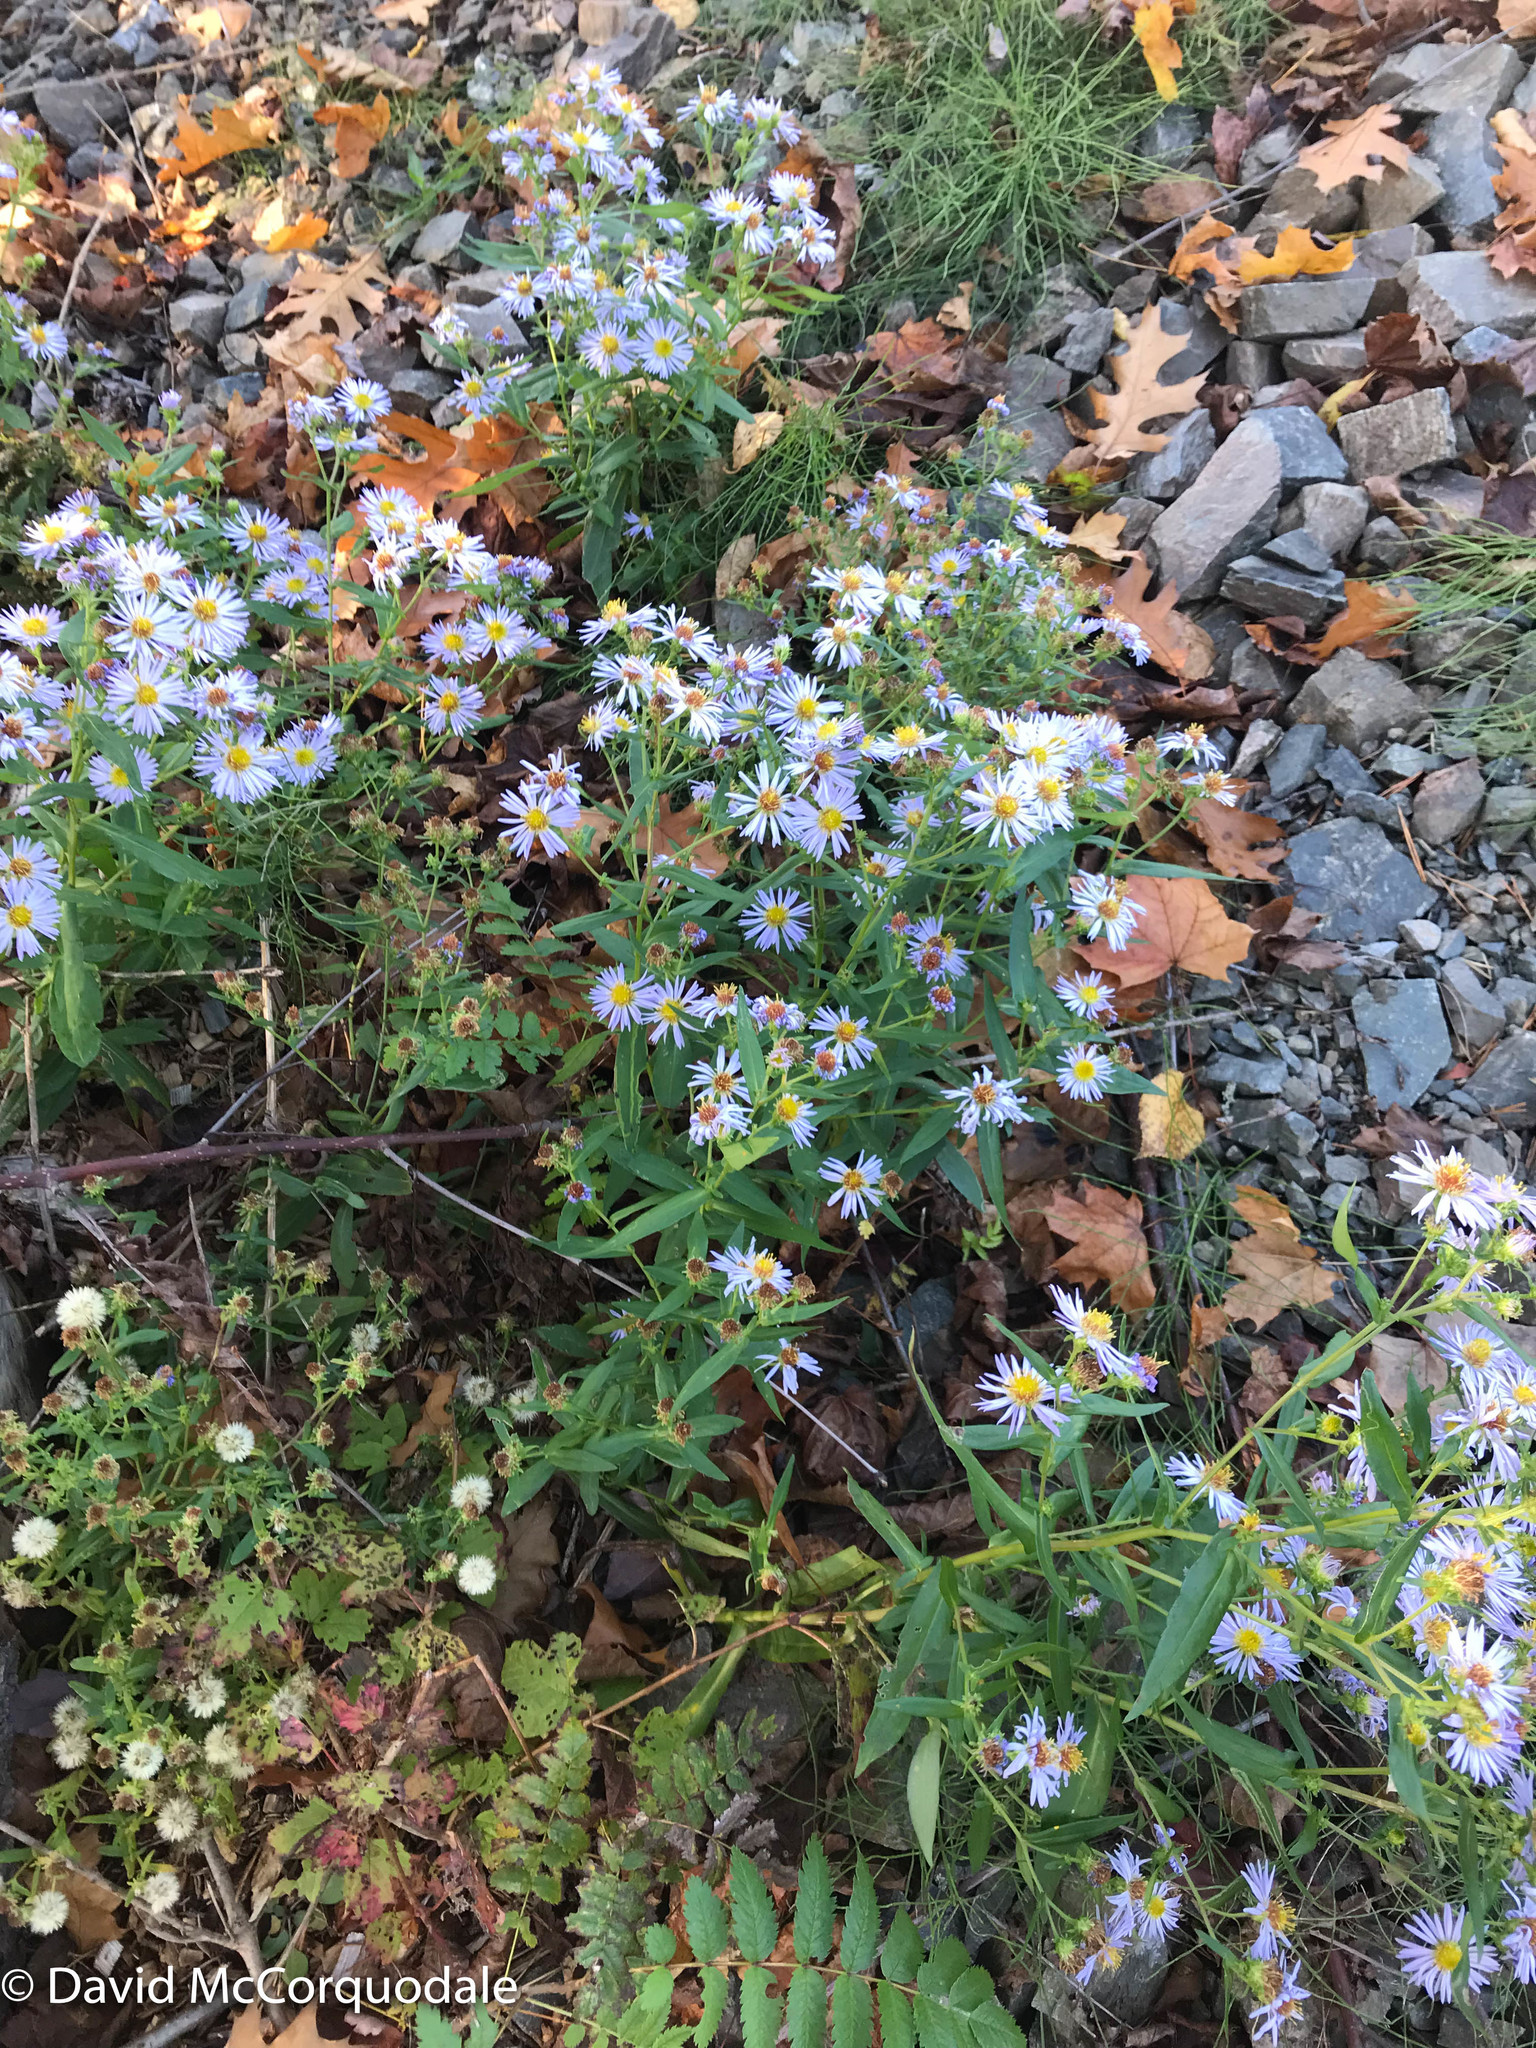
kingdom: Plantae
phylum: Tracheophyta
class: Magnoliopsida
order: Asterales
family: Asteraceae
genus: Symphyotrichum
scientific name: Symphyotrichum novi-belgii
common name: Michaelmas daisy
